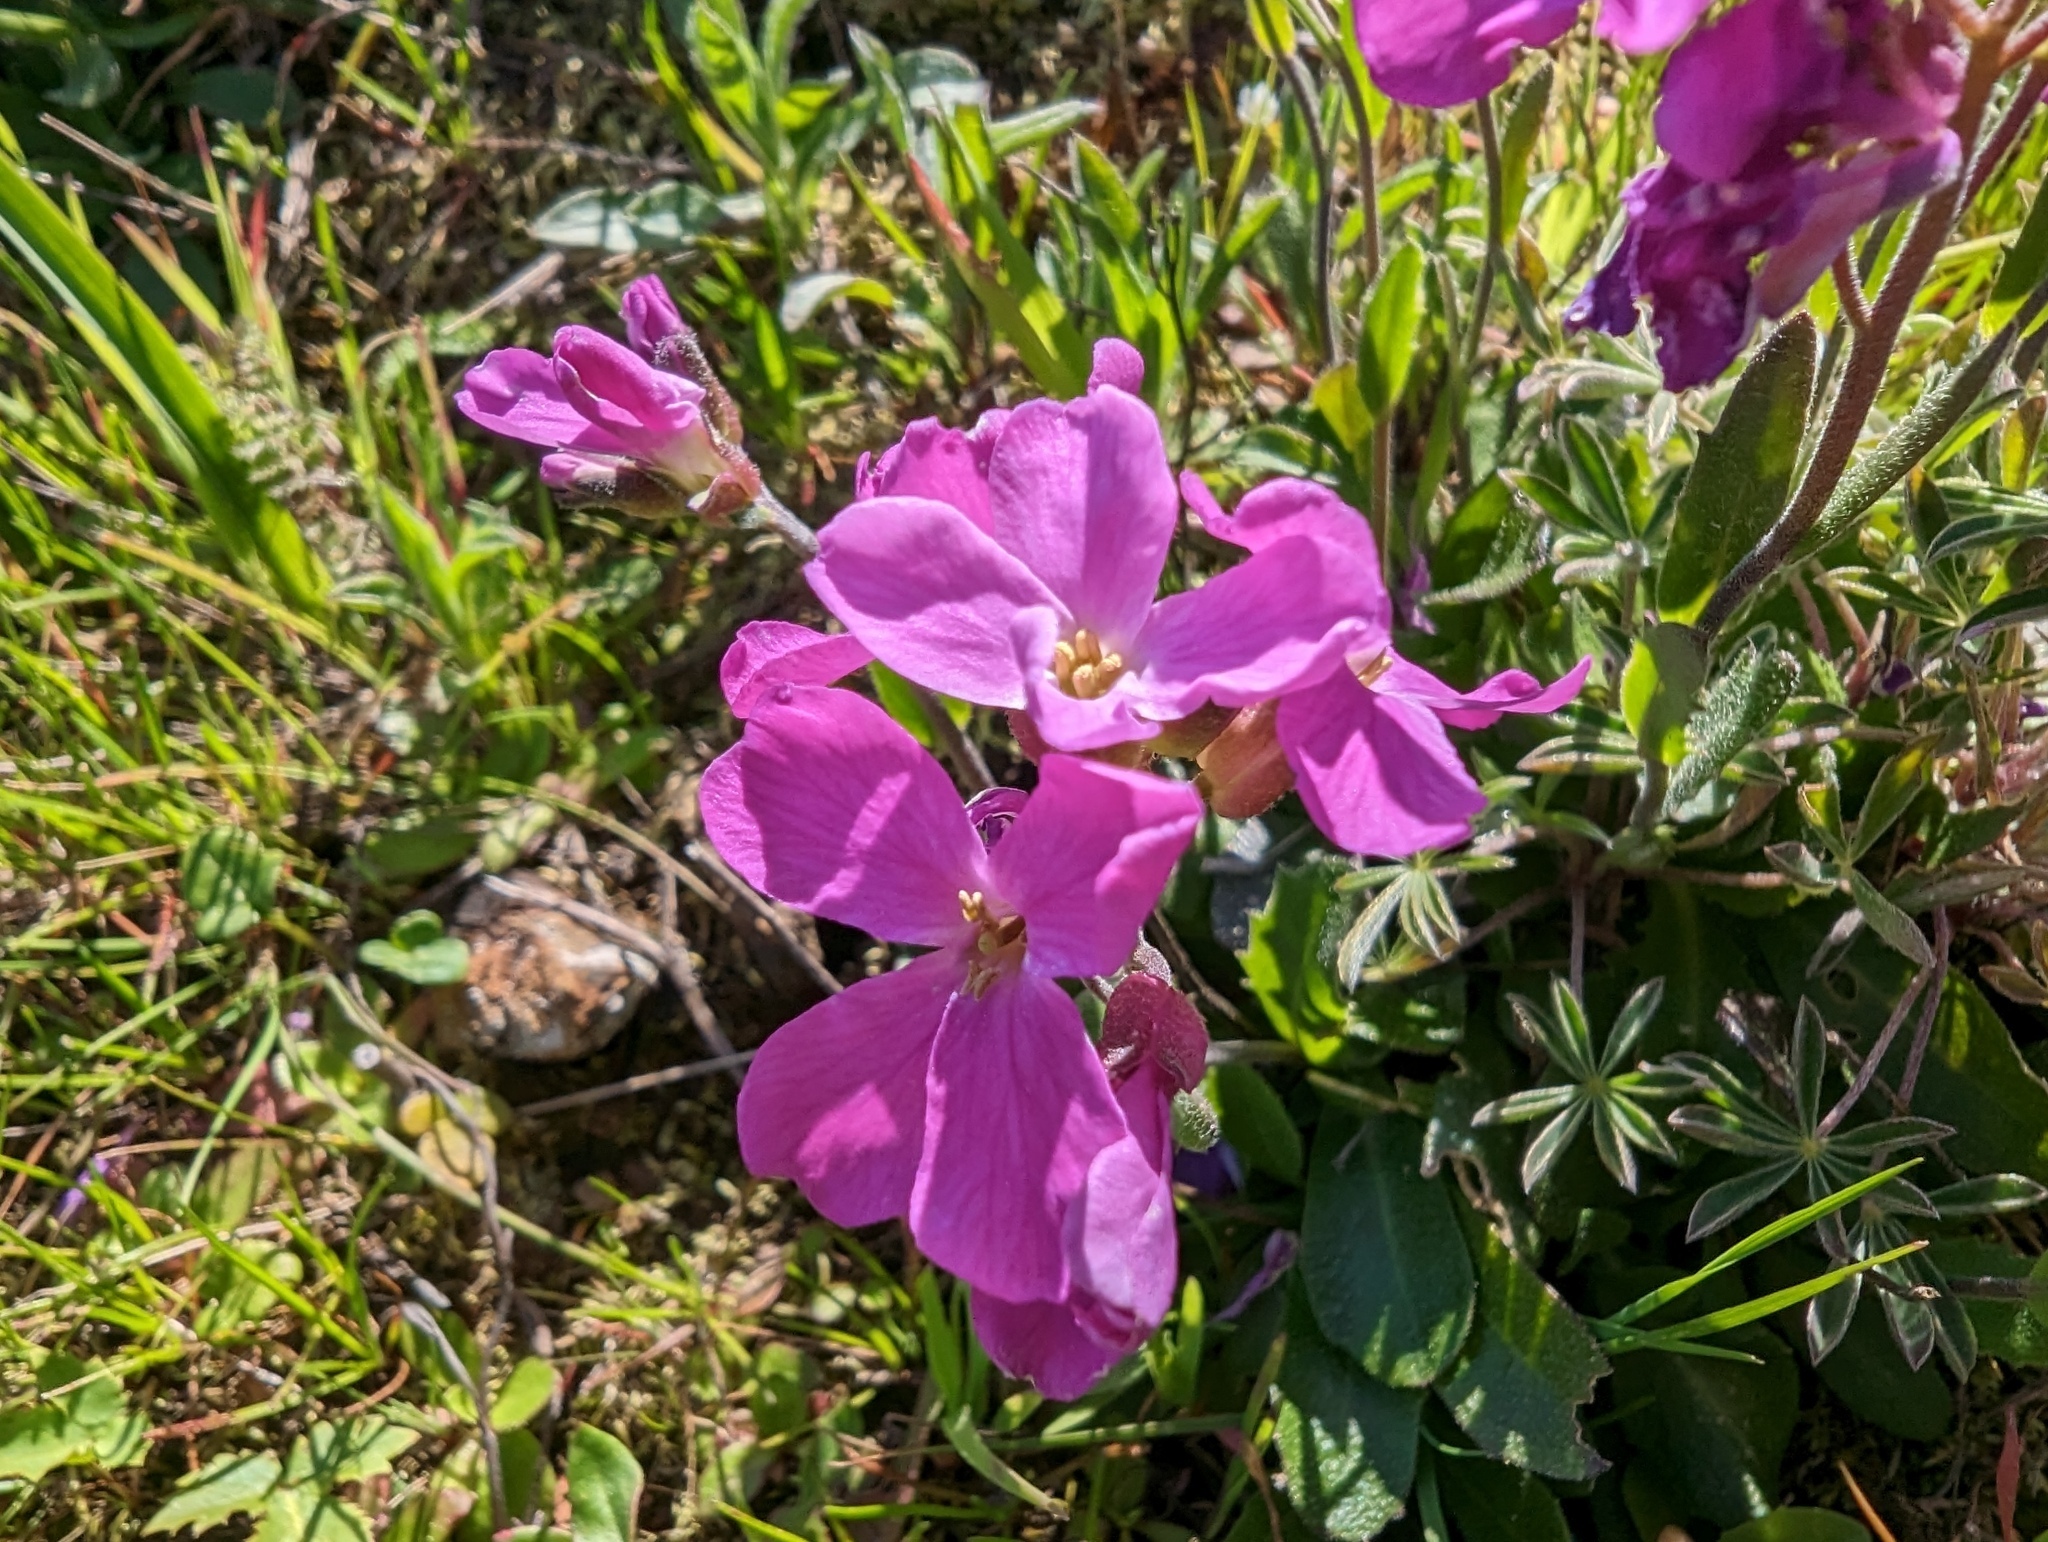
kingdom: Plantae
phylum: Tracheophyta
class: Magnoliopsida
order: Brassicales
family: Brassicaceae
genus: Arabis
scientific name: Arabis blepharophylla
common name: Rose rockcress
